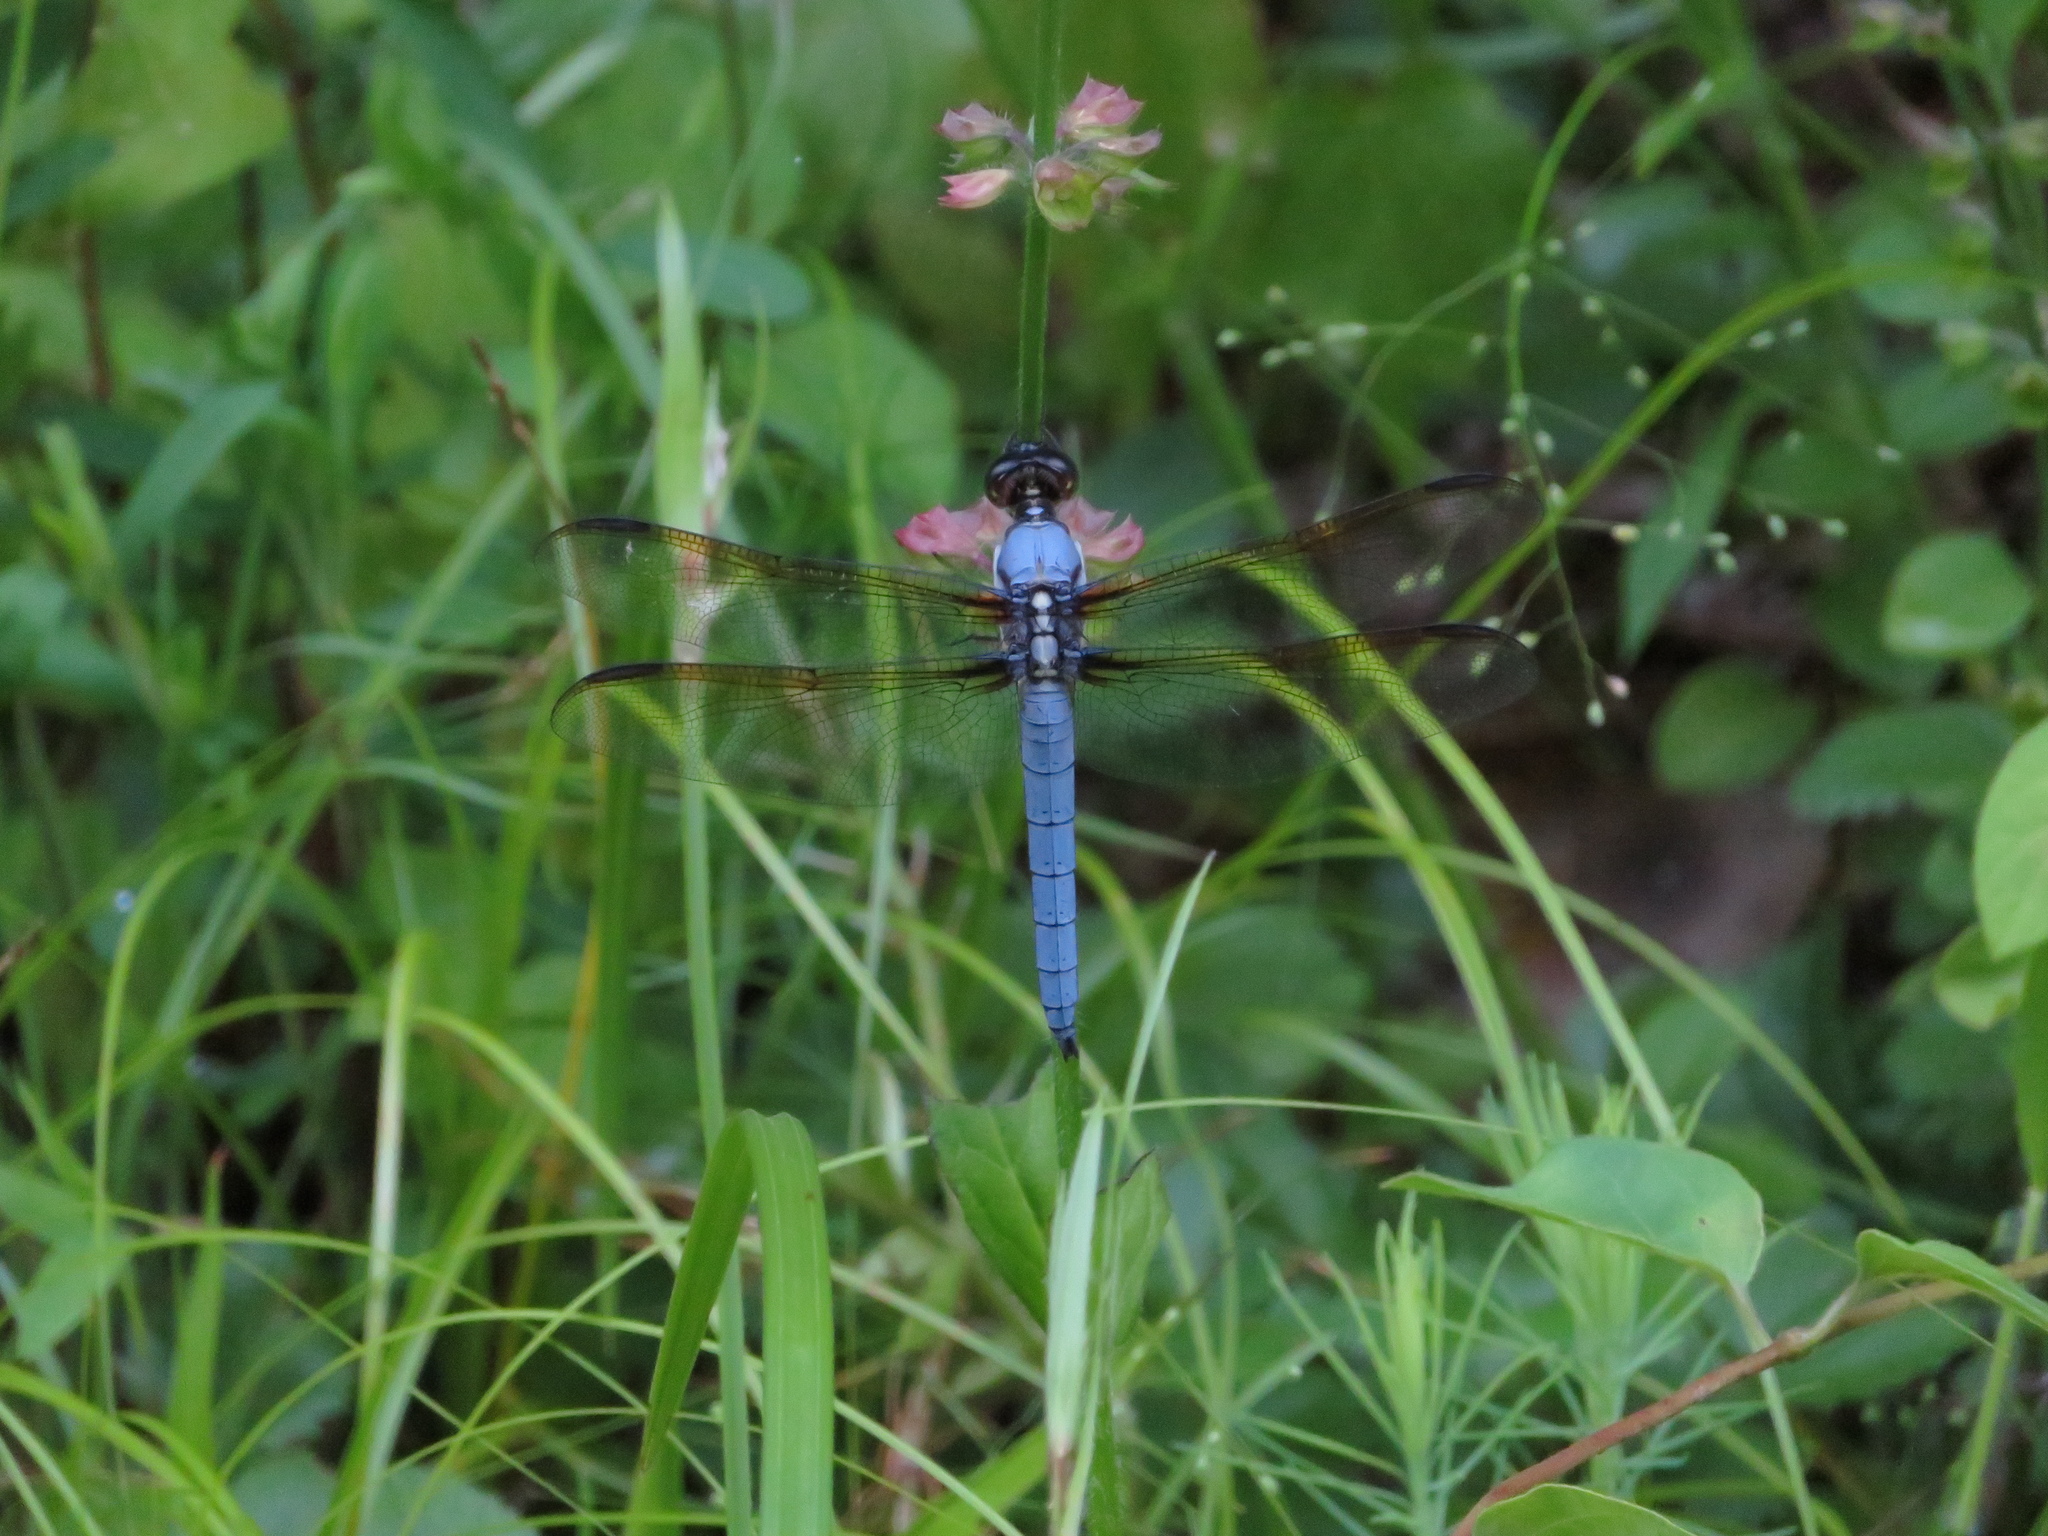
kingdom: Animalia
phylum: Arthropoda
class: Insecta
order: Odonata
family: Libellulidae
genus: Libellula
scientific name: Libellula flavida
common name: Yellow-sided skimmer
